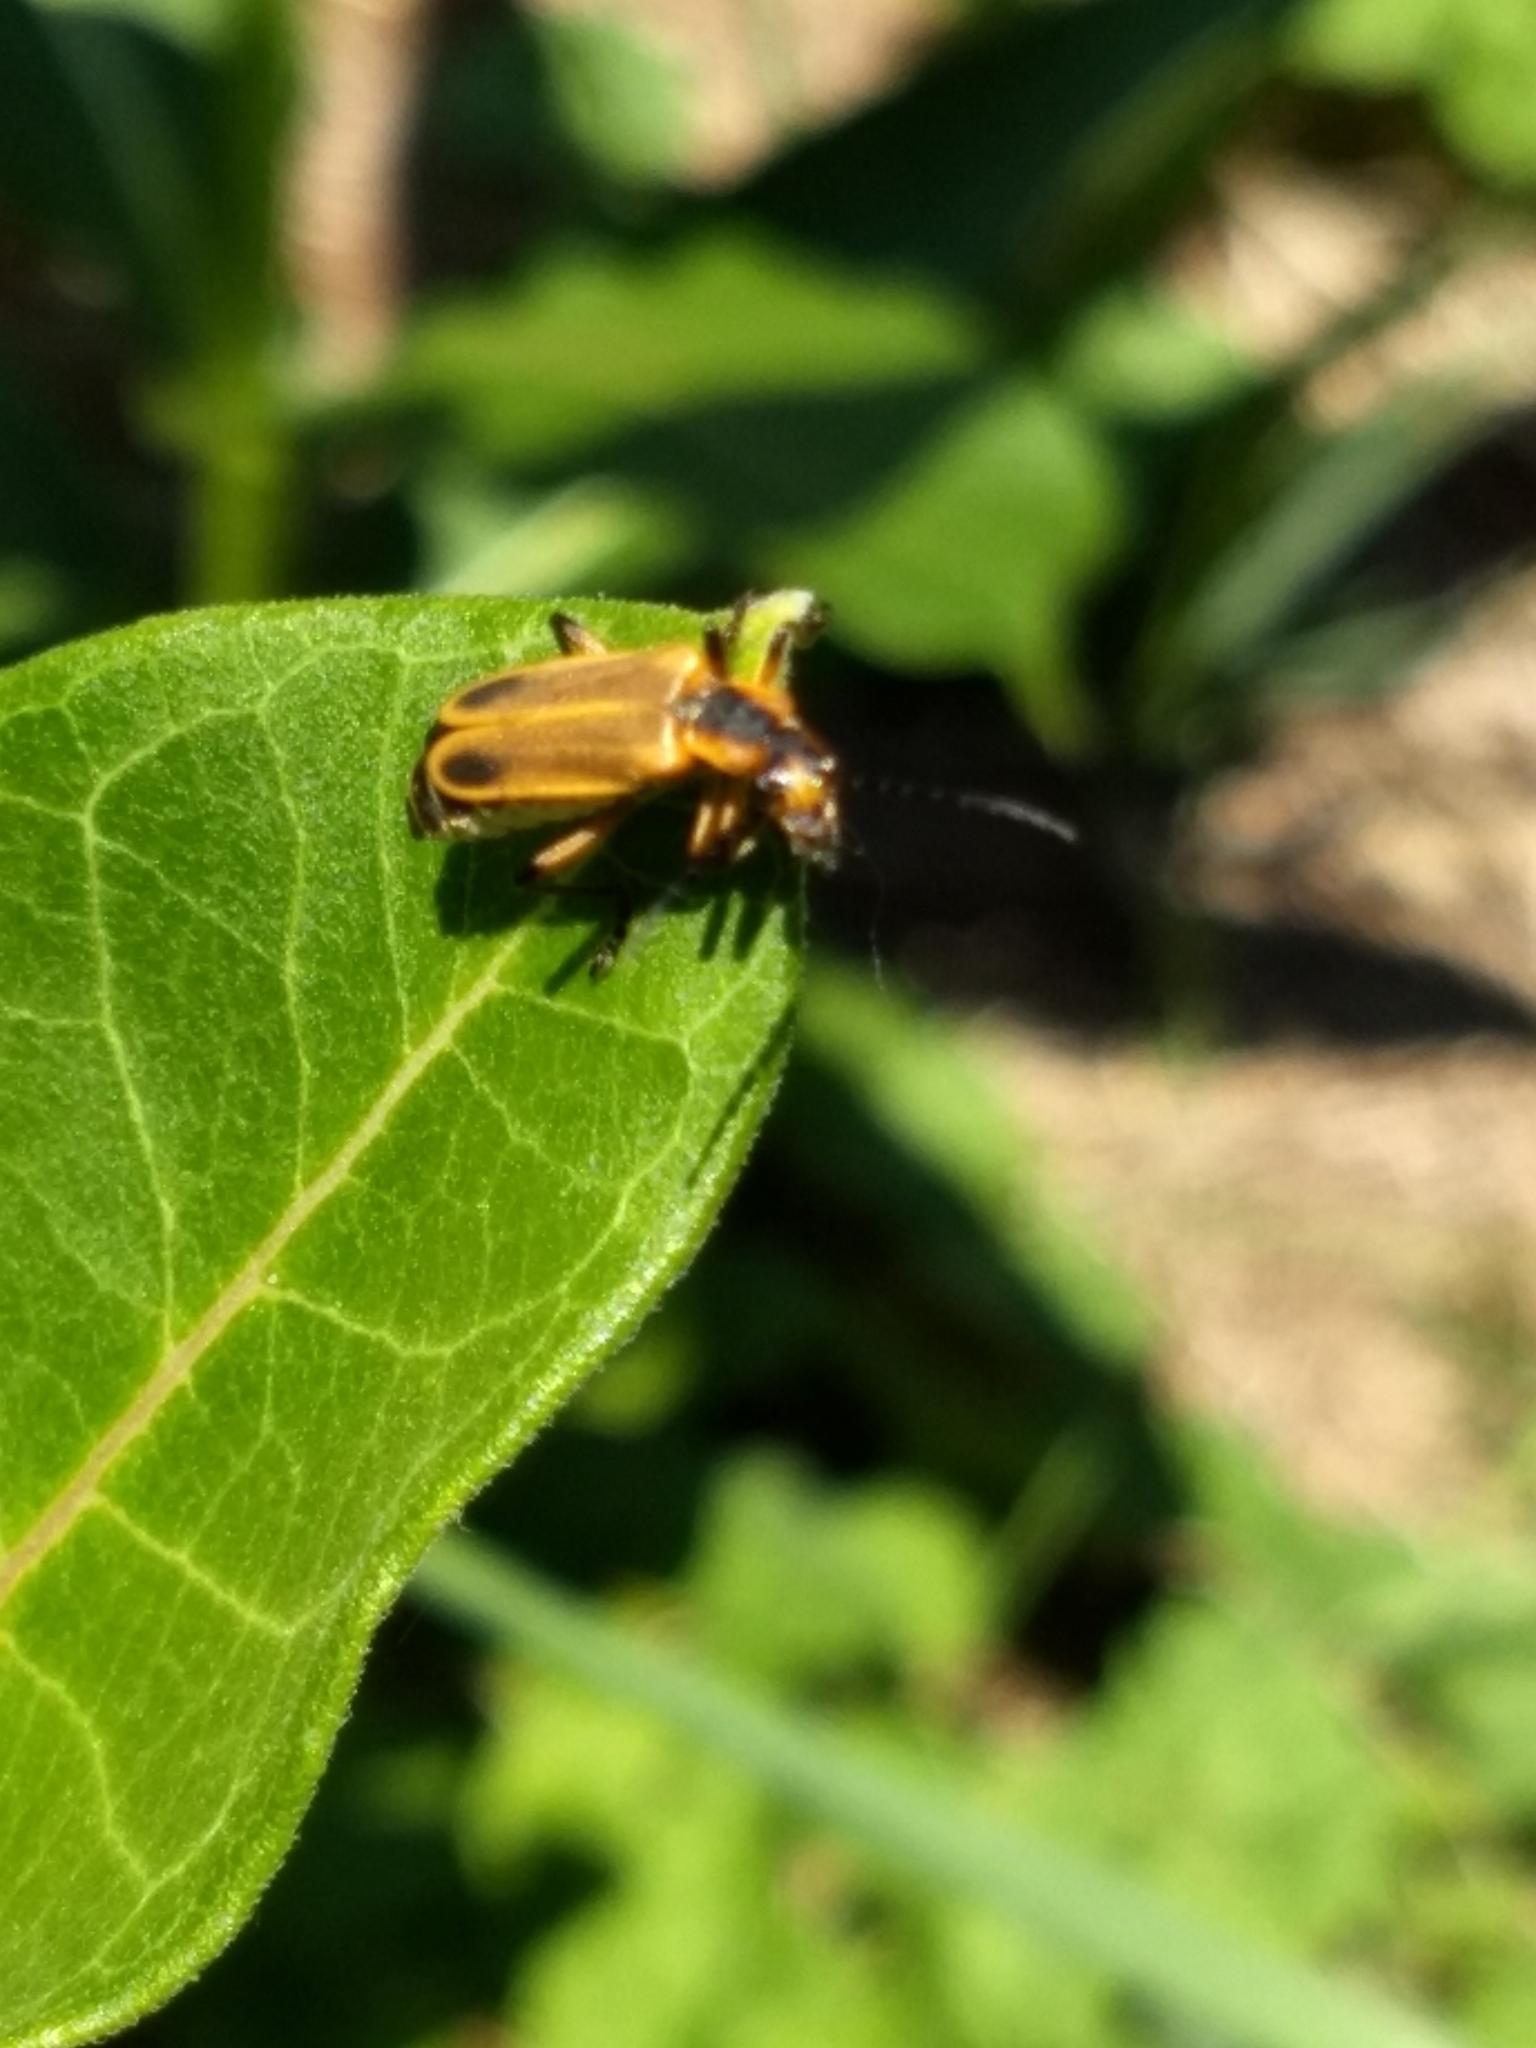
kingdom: Animalia
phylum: Arthropoda
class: Insecta
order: Coleoptera
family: Cantharidae
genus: Chauliognathus
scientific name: Chauliognathus marginatus
